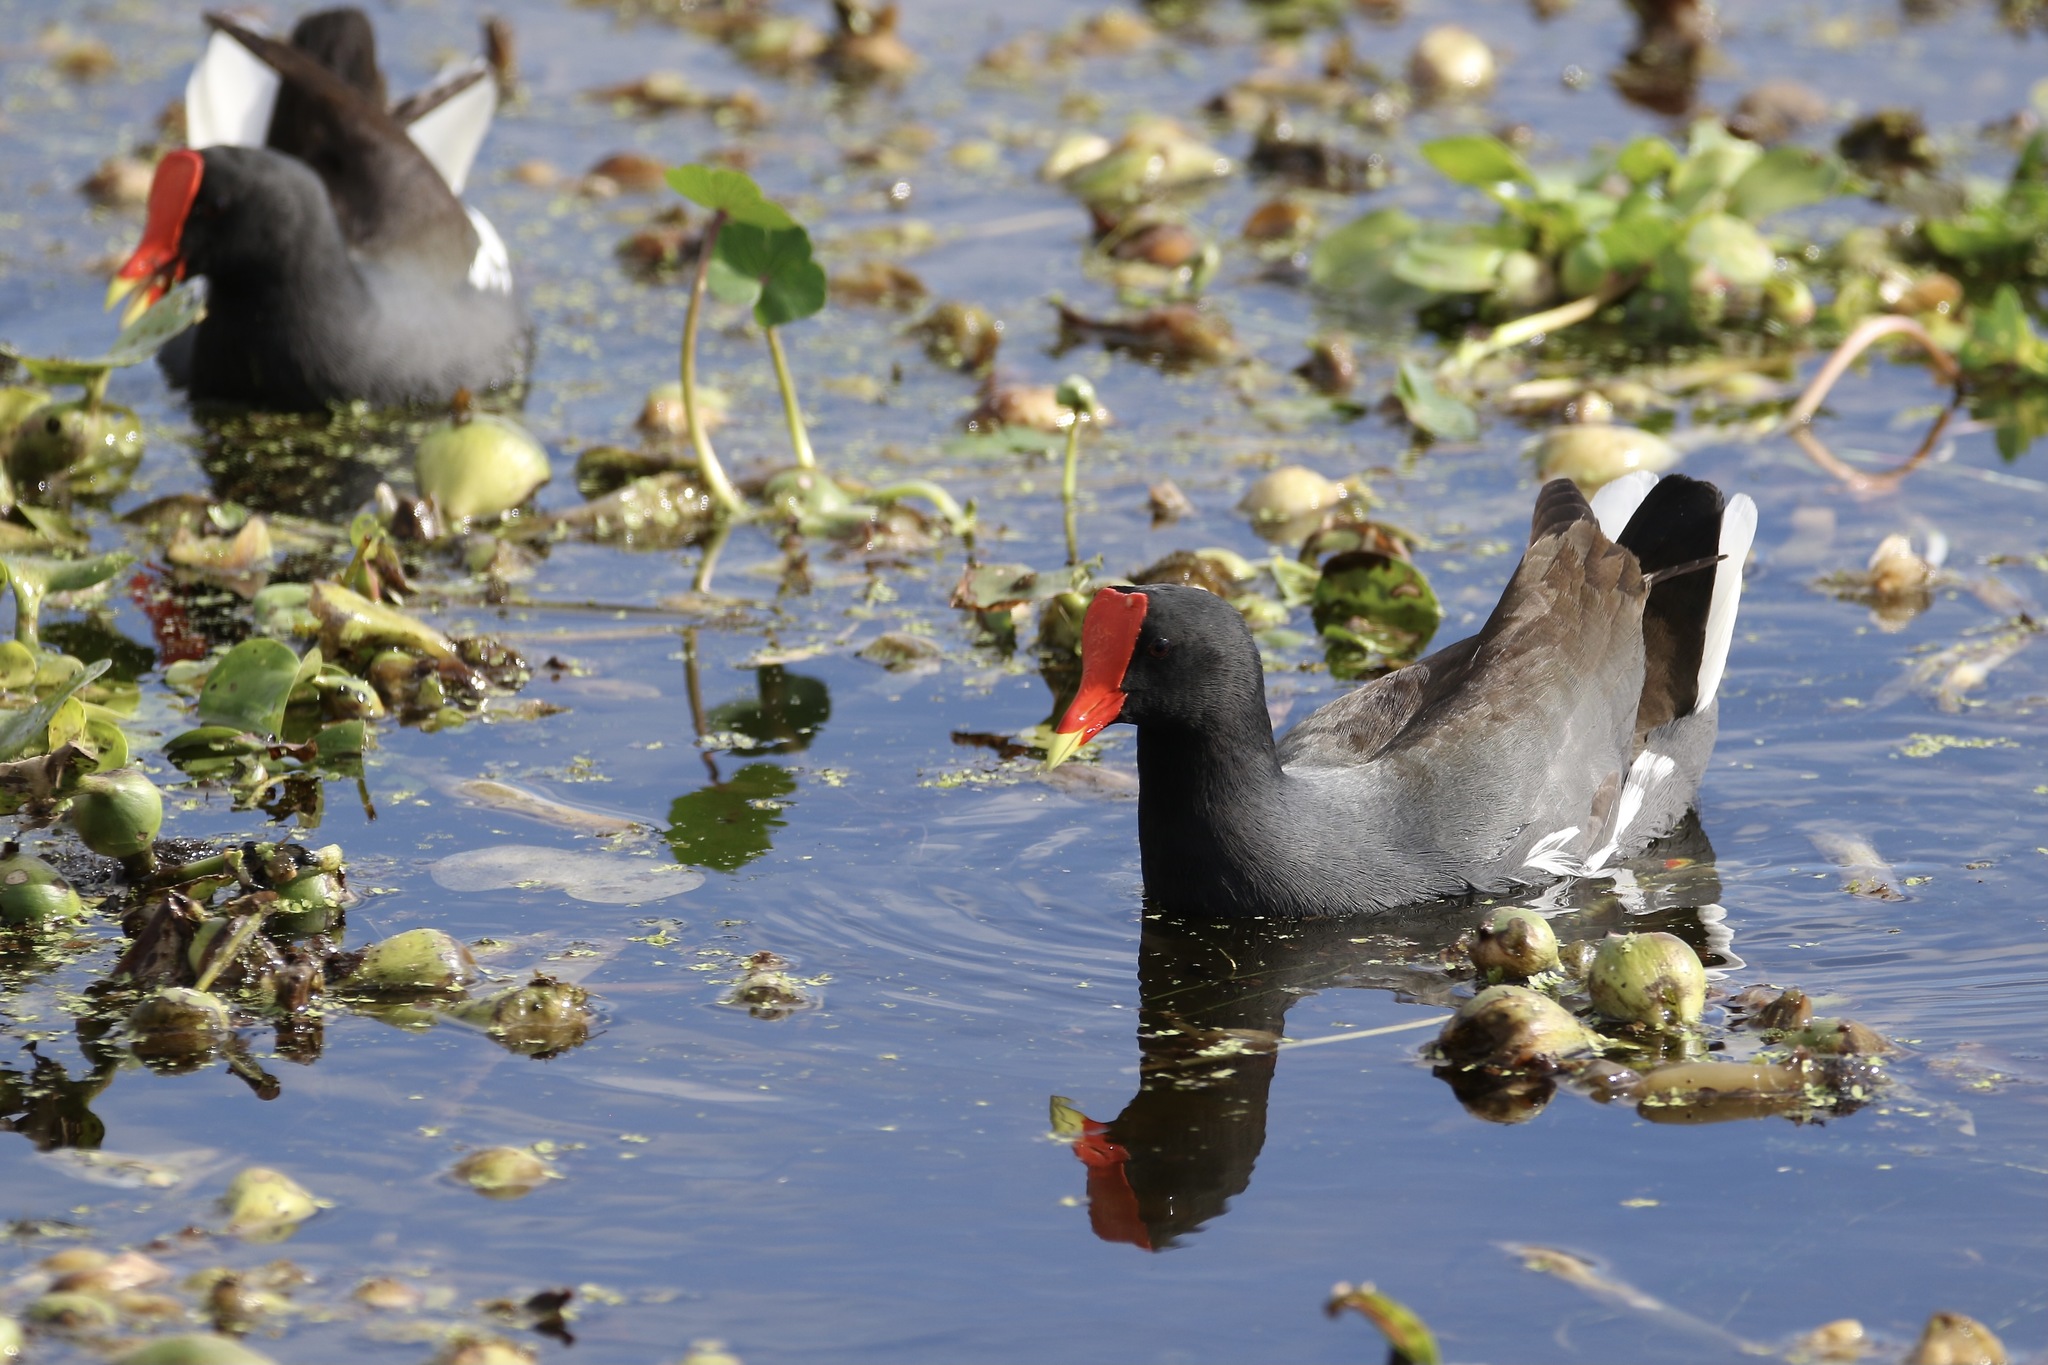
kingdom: Animalia
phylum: Chordata
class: Aves
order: Gruiformes
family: Rallidae
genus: Gallinula
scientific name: Gallinula chloropus
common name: Common moorhen
